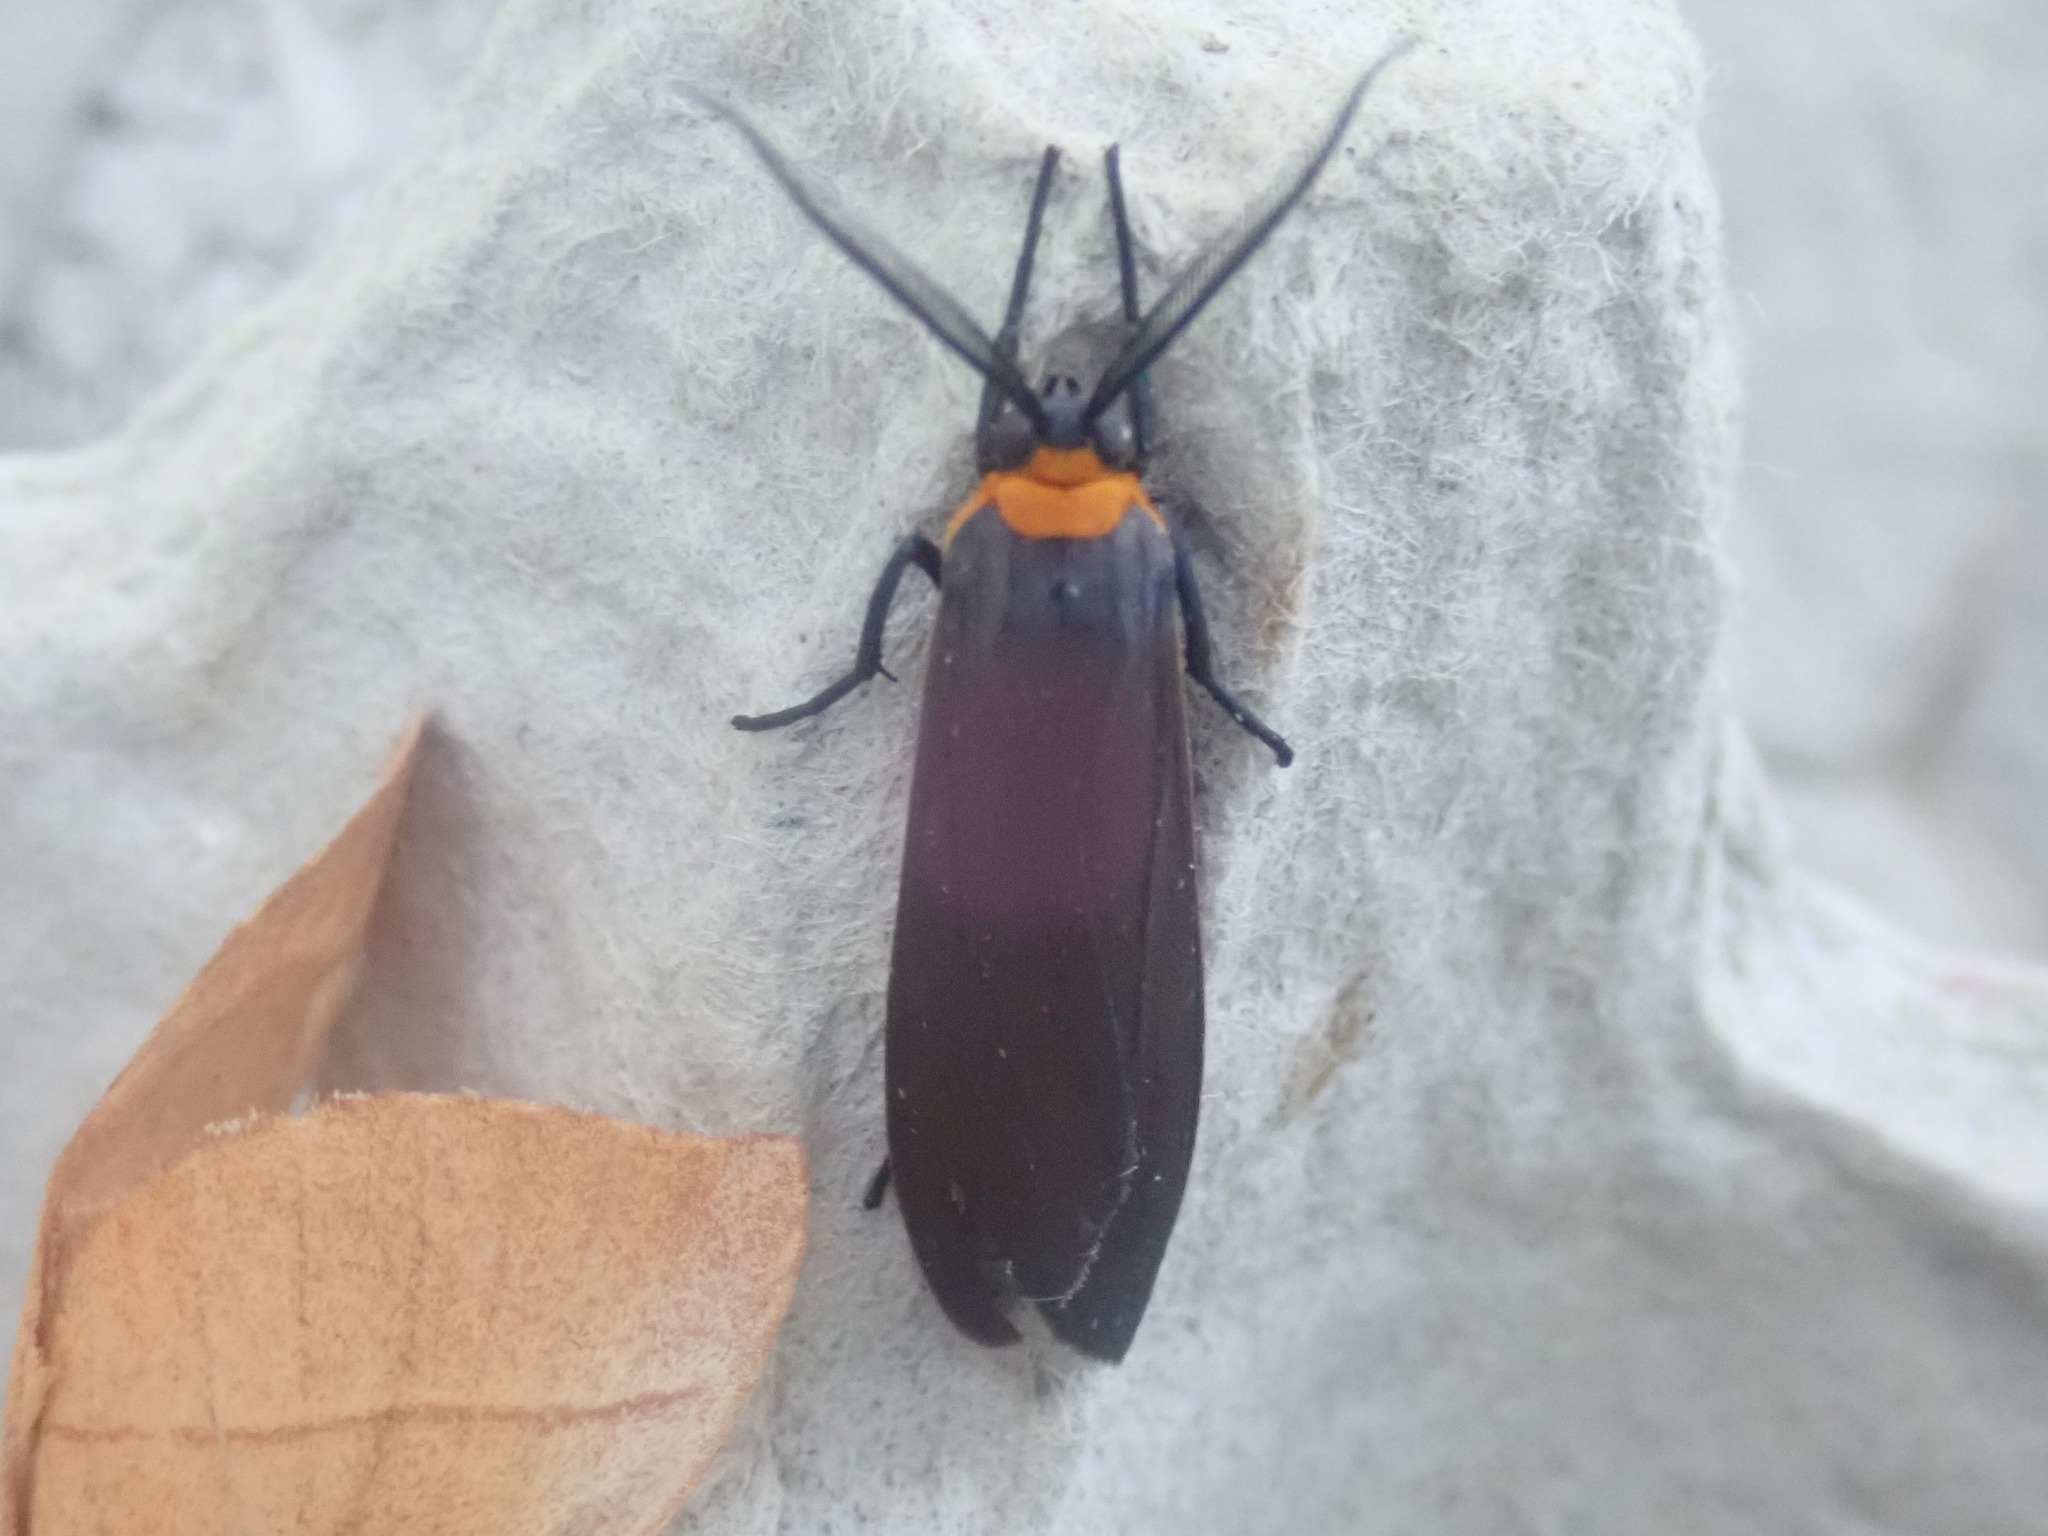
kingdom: Animalia
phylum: Arthropoda
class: Insecta
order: Lepidoptera
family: Erebidae
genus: Cisseps
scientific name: Cisseps fulvicollis
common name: Yellow-collared scape moth
